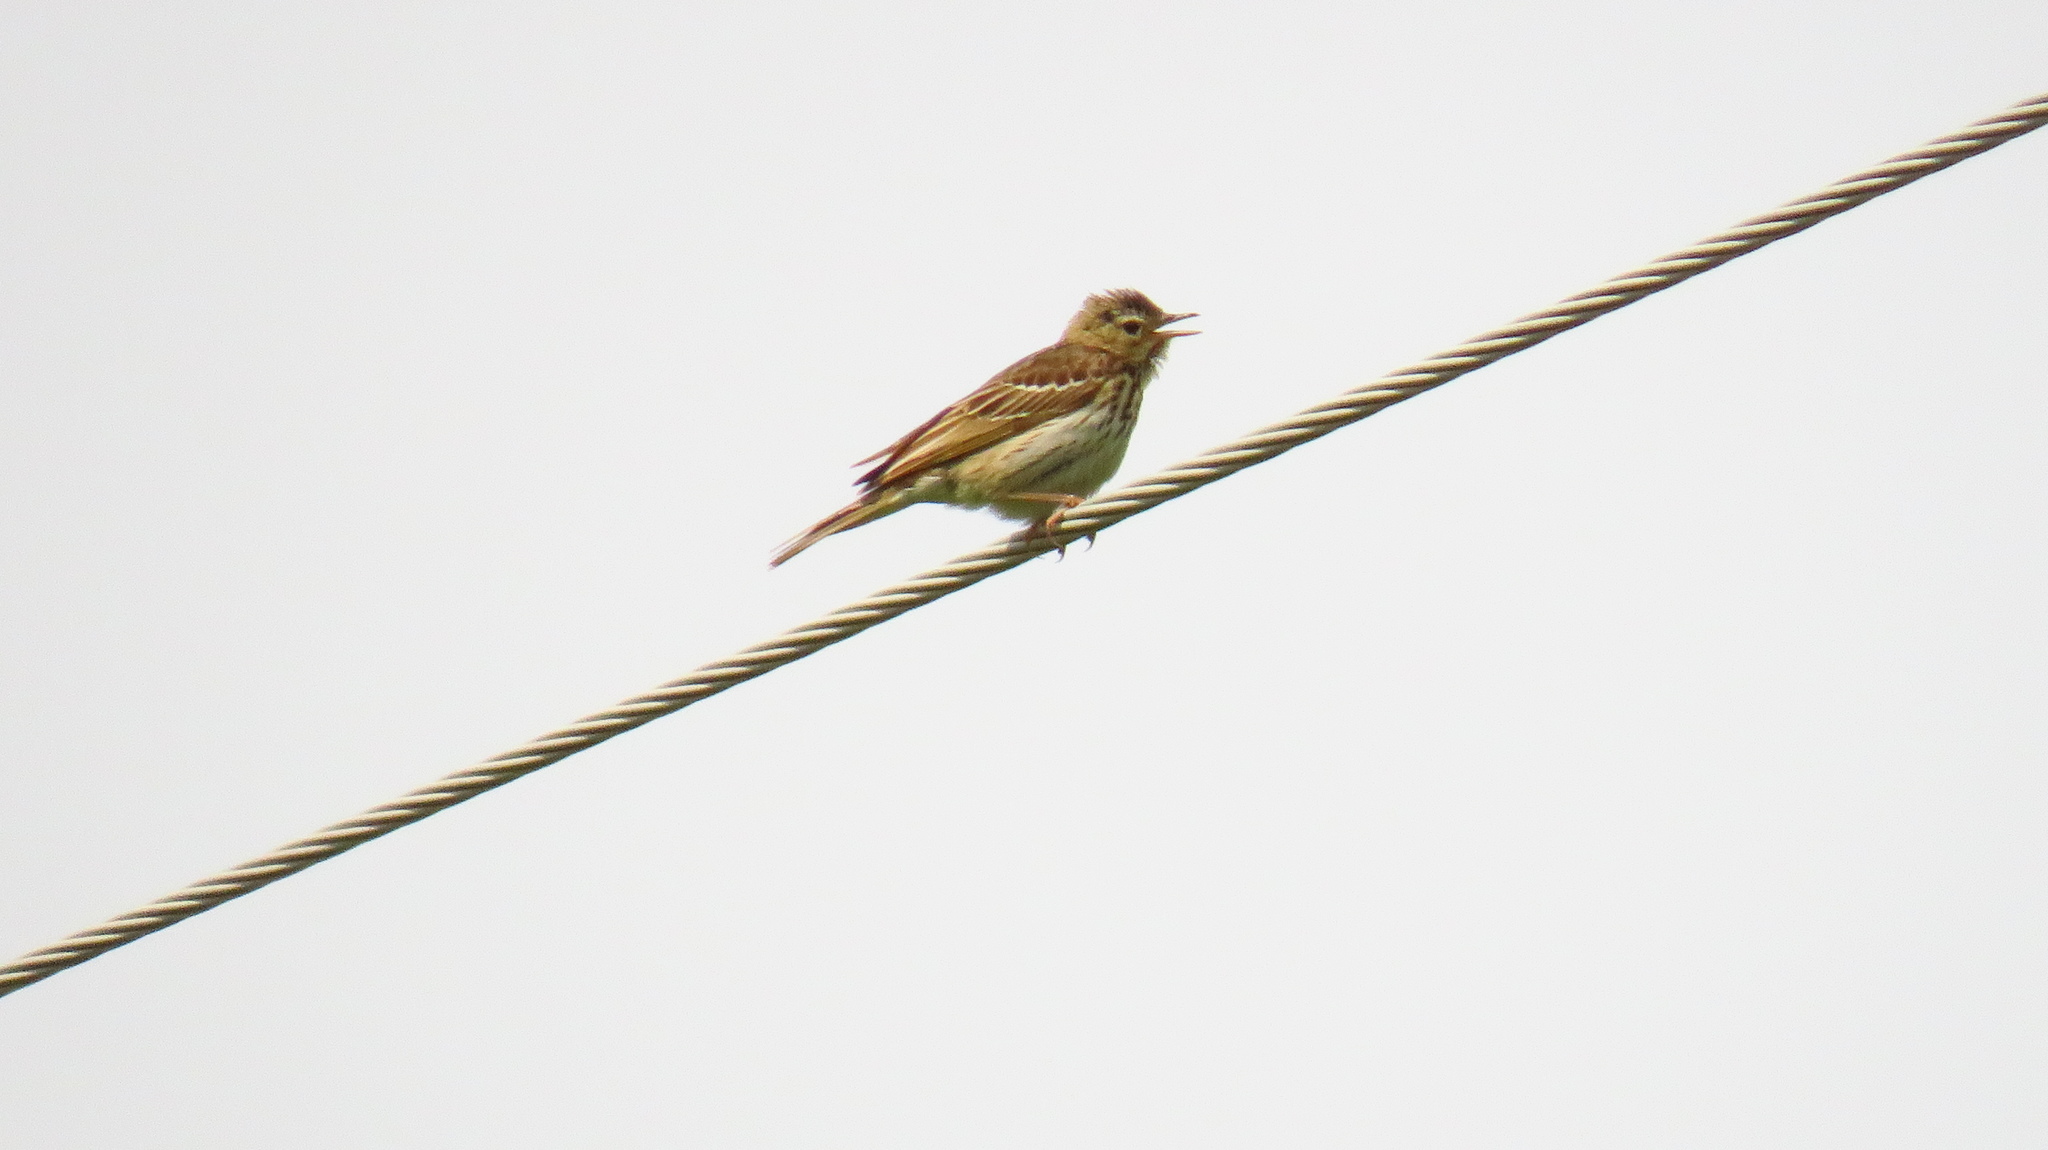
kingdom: Animalia
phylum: Chordata
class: Aves
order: Passeriformes
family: Motacillidae
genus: Anthus
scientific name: Anthus trivialis
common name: Tree pipit
